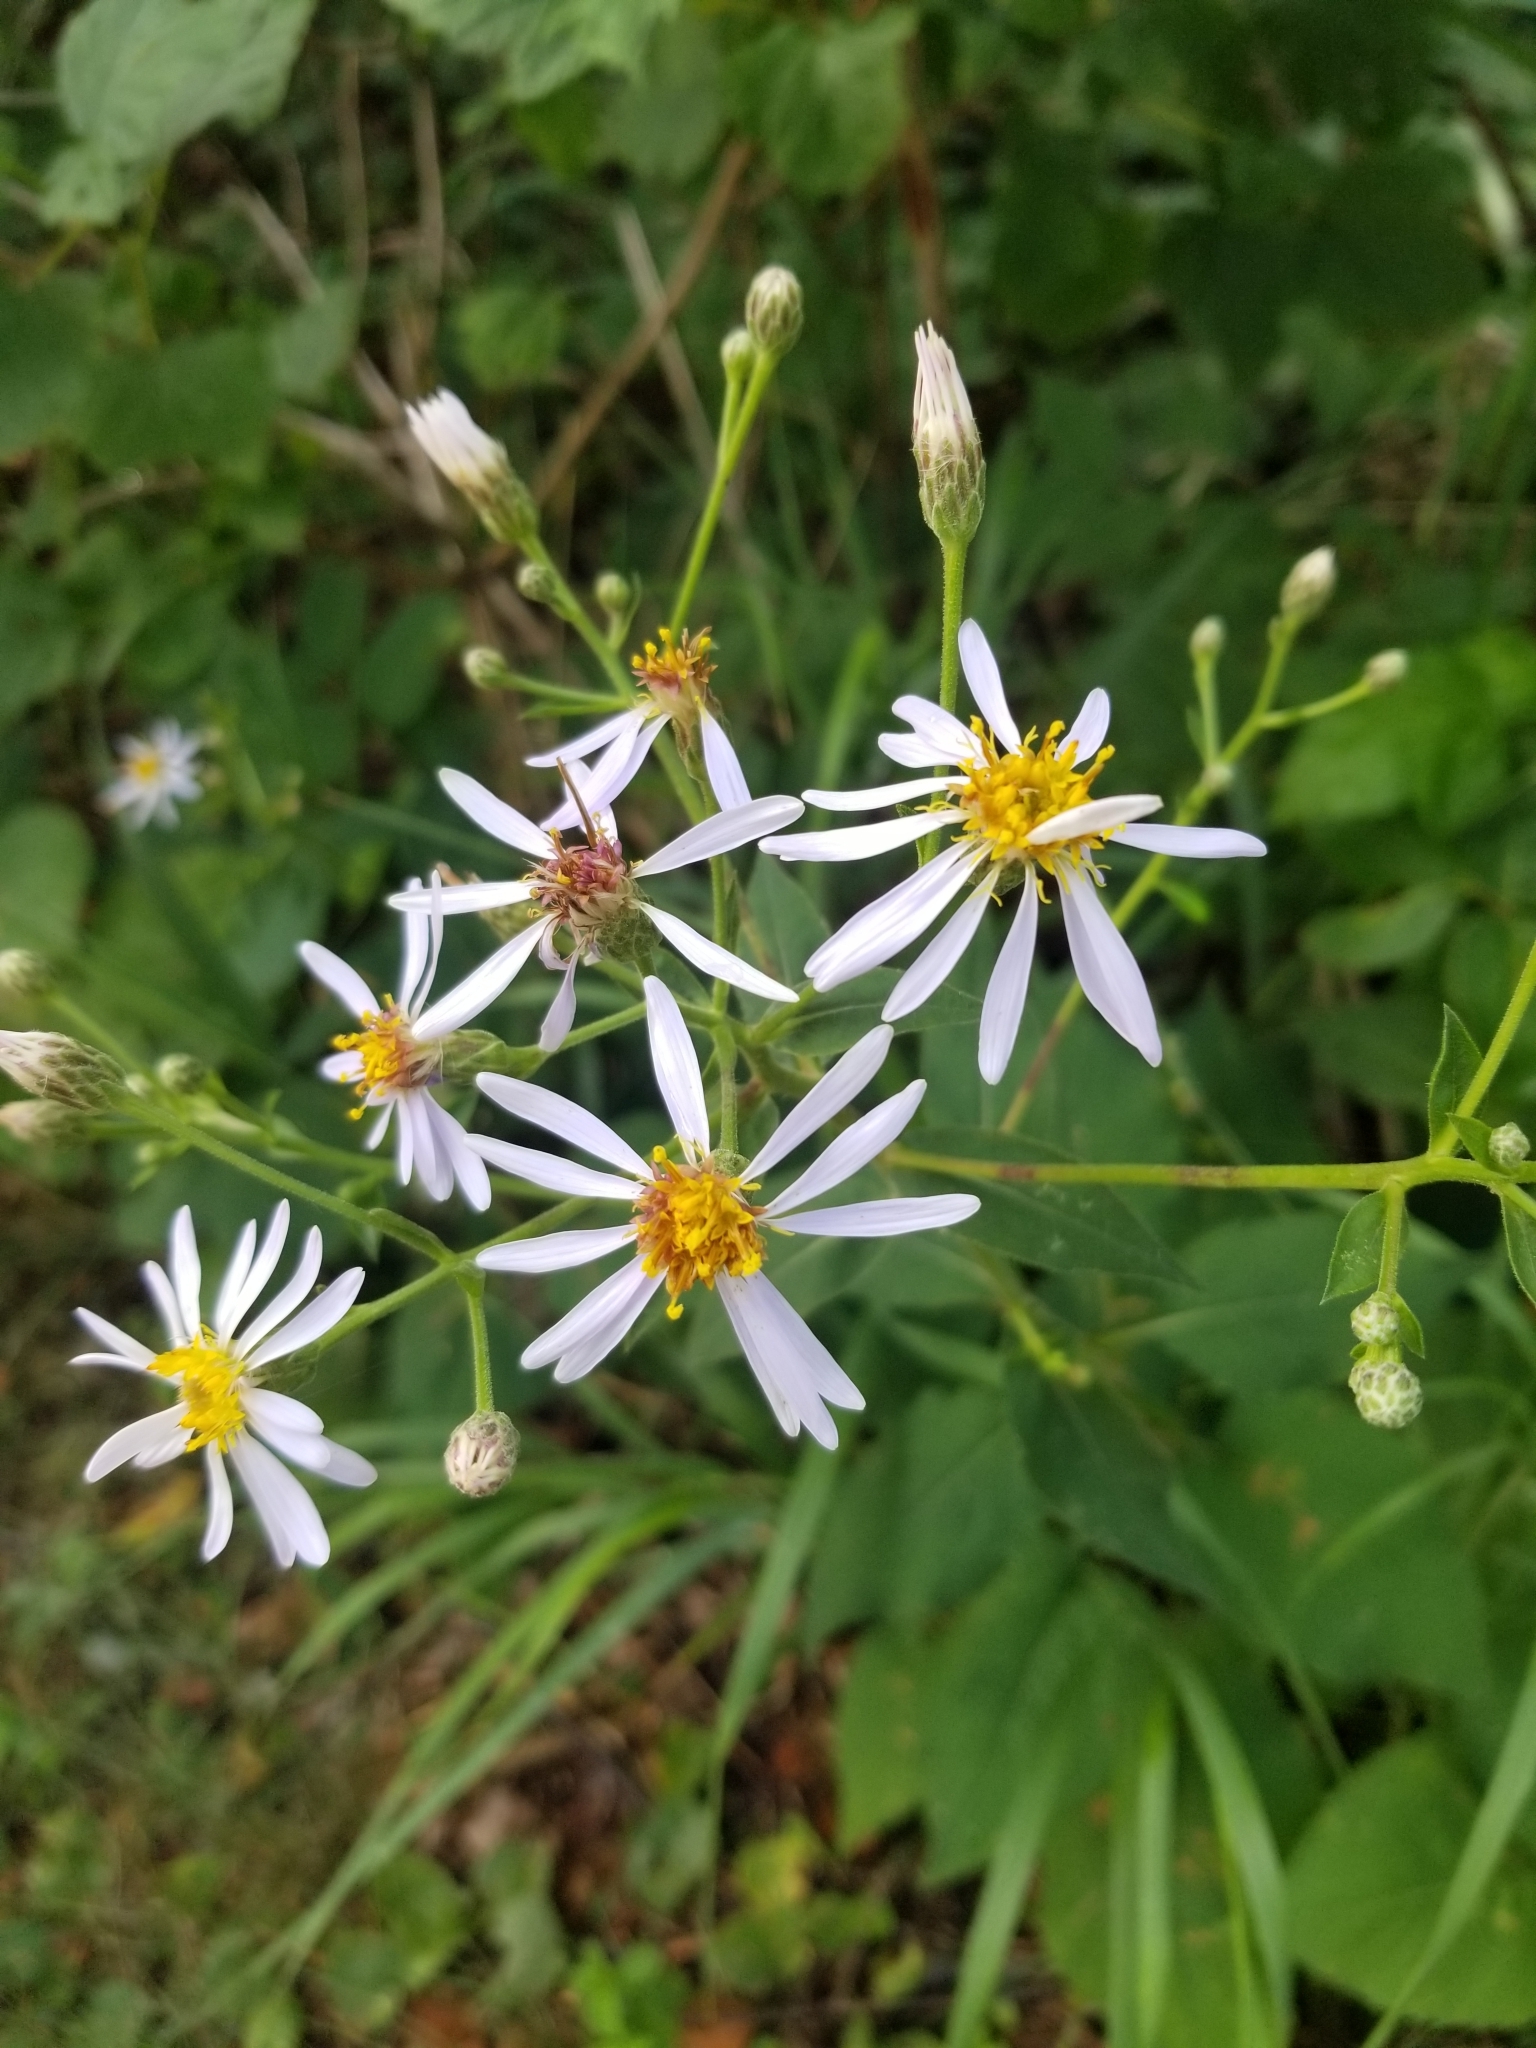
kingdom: Plantae
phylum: Tracheophyta
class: Magnoliopsida
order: Asterales
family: Asteraceae
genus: Eurybia
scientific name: Eurybia macrophylla
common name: Big-leaved aster
